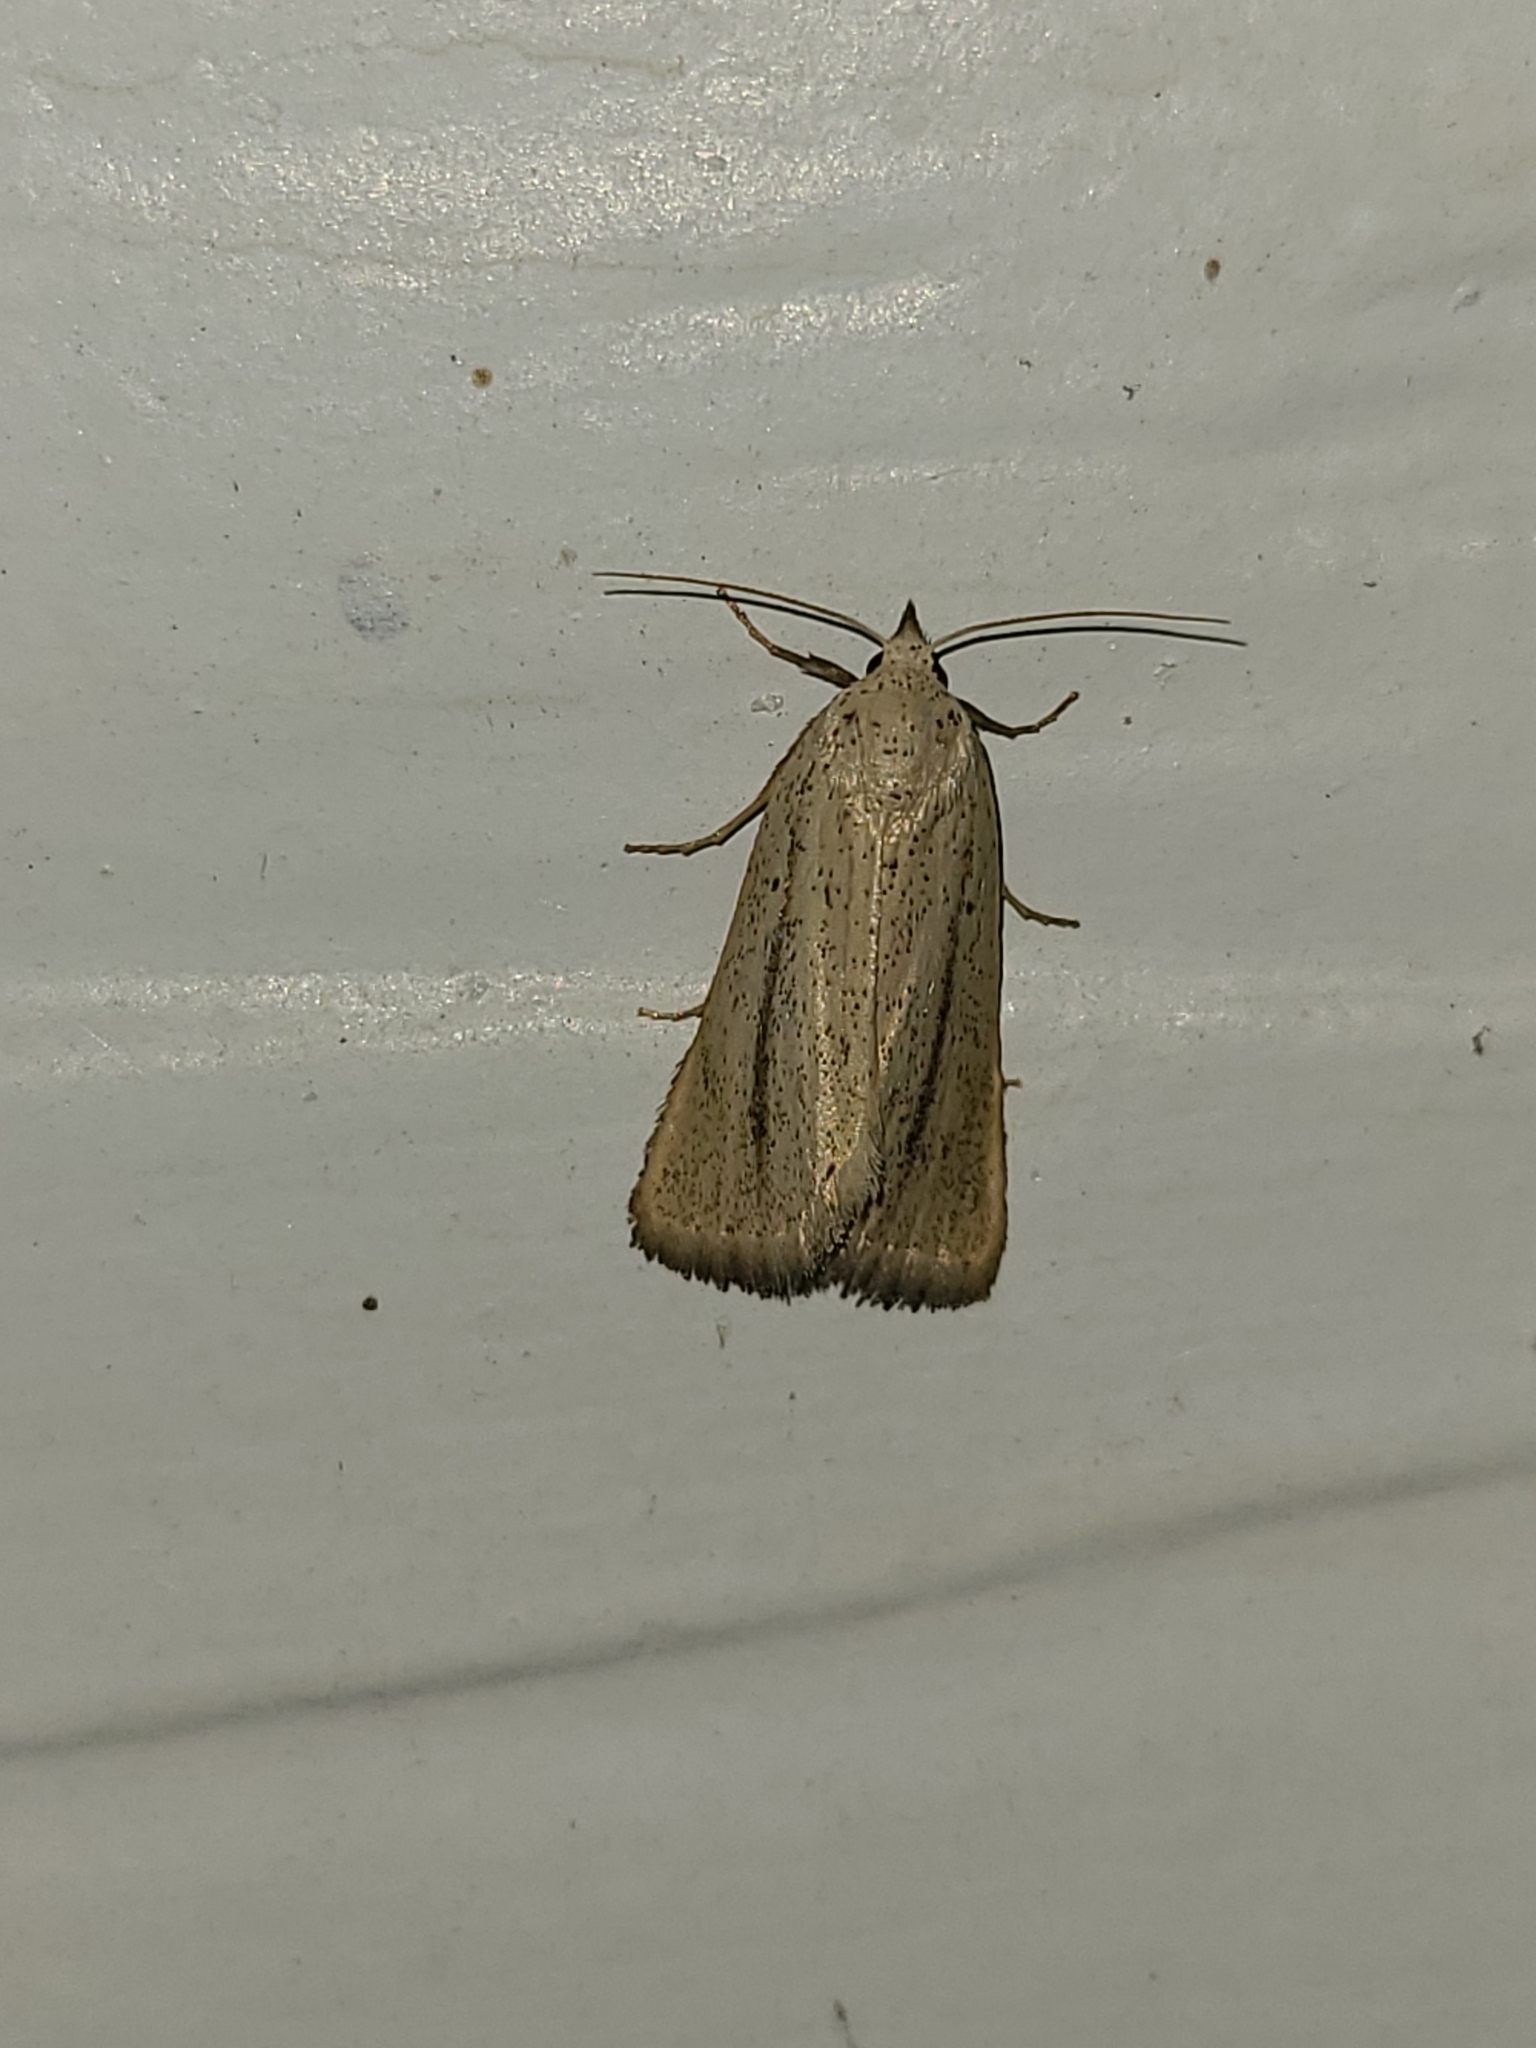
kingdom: Animalia
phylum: Arthropoda
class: Insecta
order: Lepidoptera
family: Erebidae
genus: Gabara
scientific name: Gabara distema
